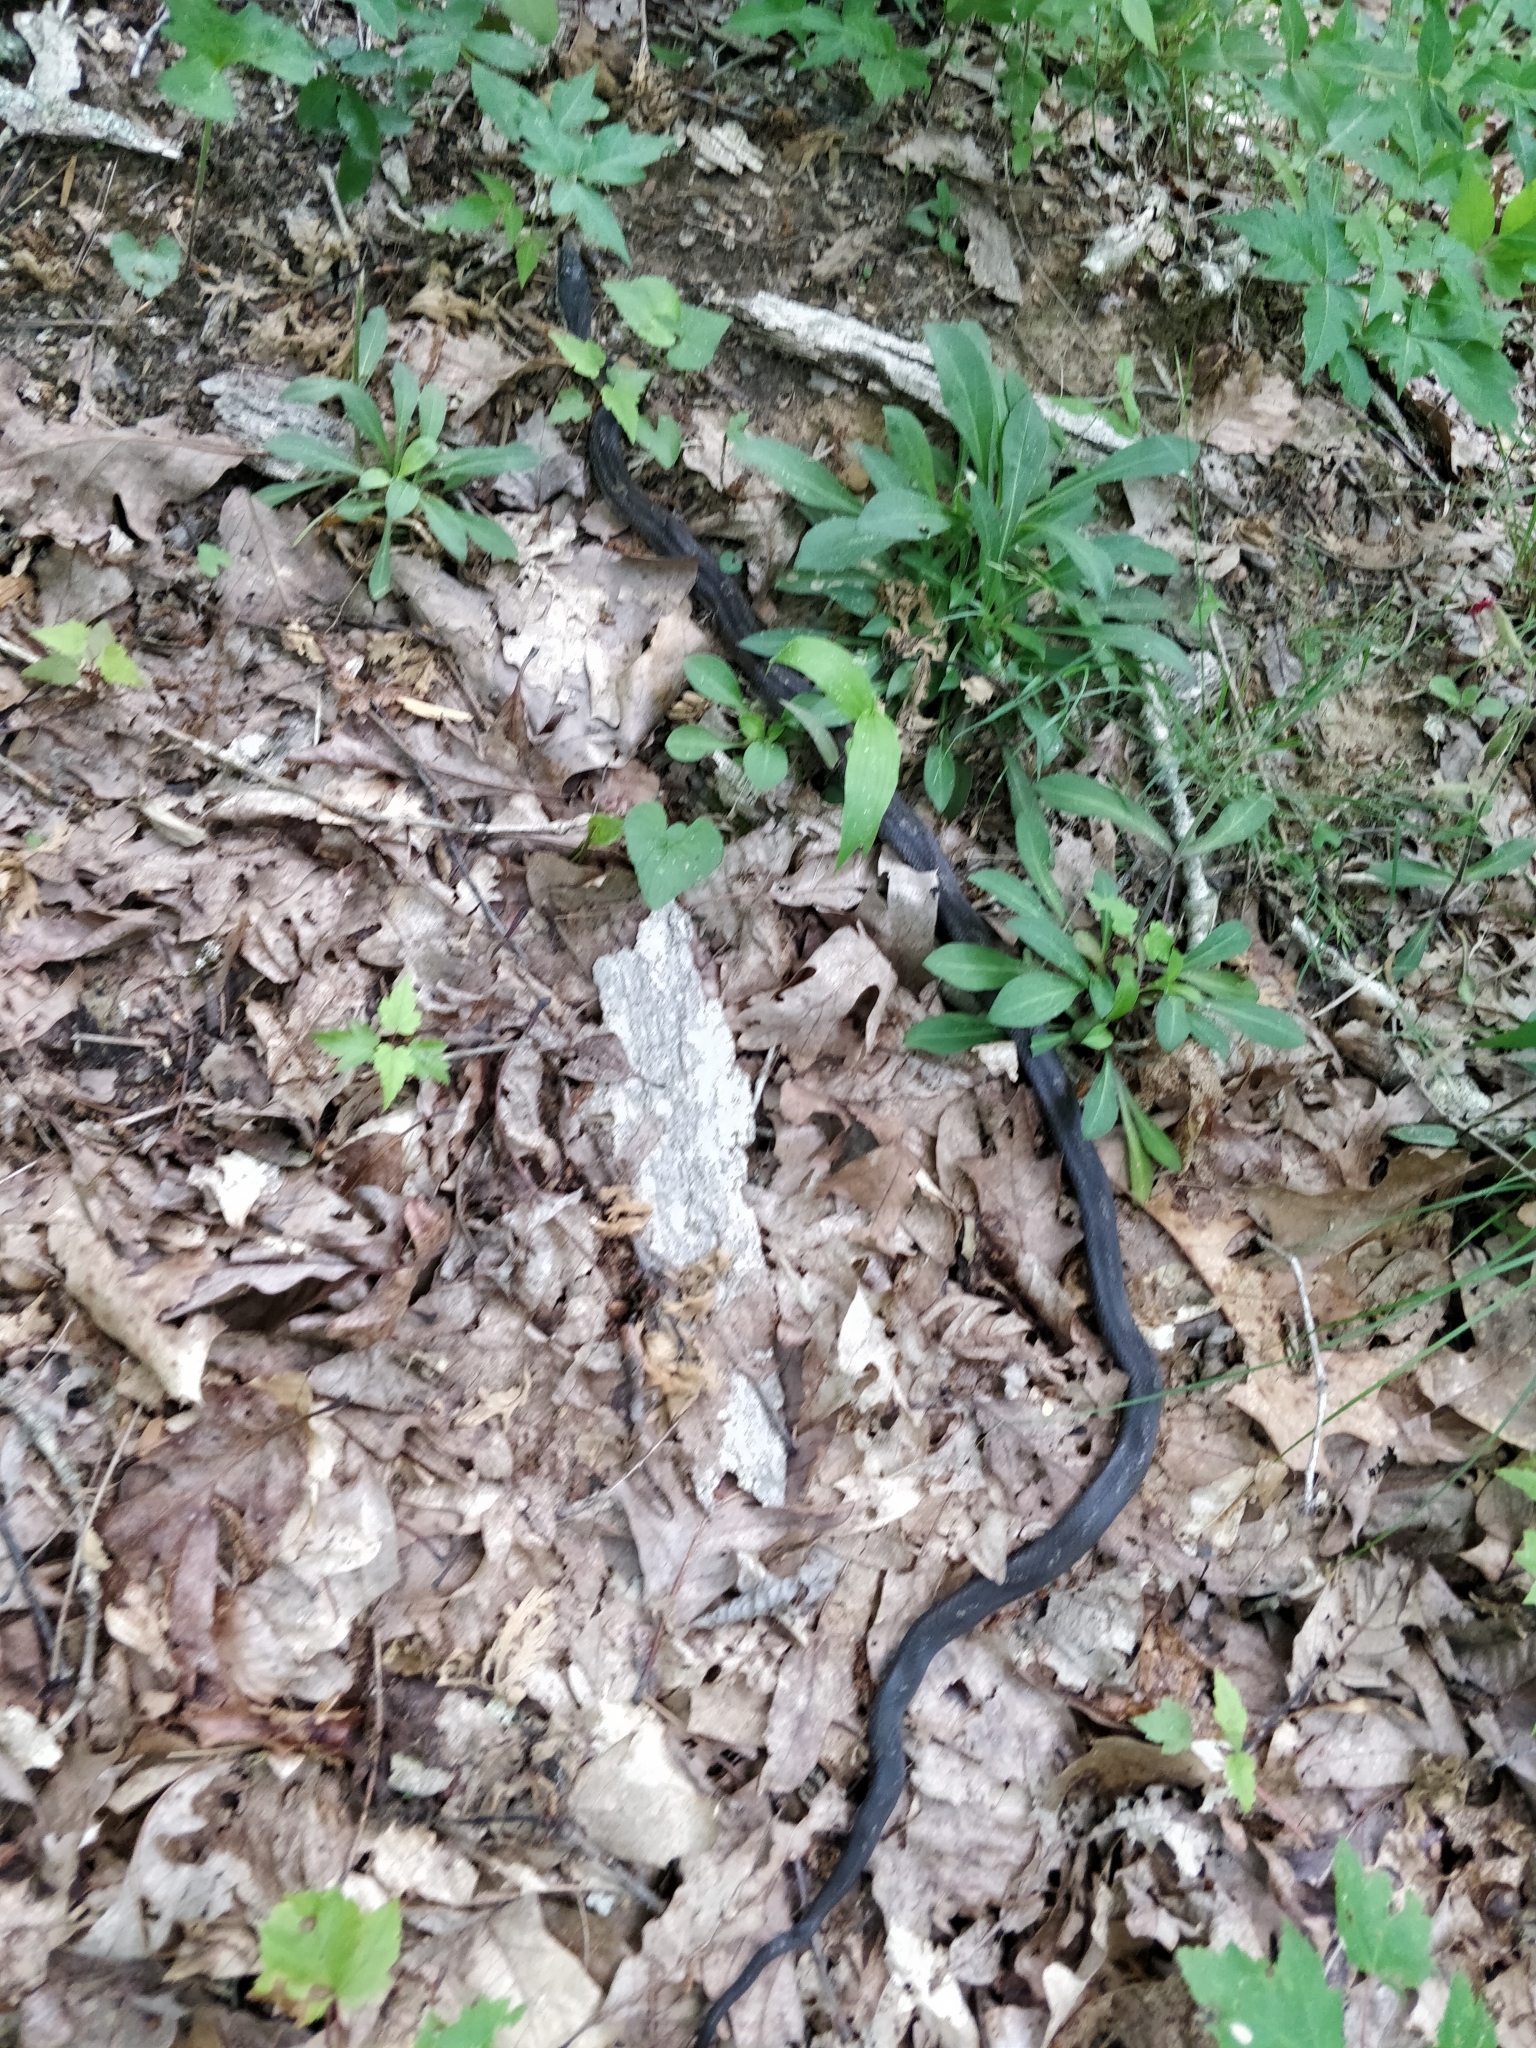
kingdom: Animalia
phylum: Chordata
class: Squamata
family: Colubridae
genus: Pantherophis
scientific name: Pantherophis spiloides
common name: Gray rat snake
